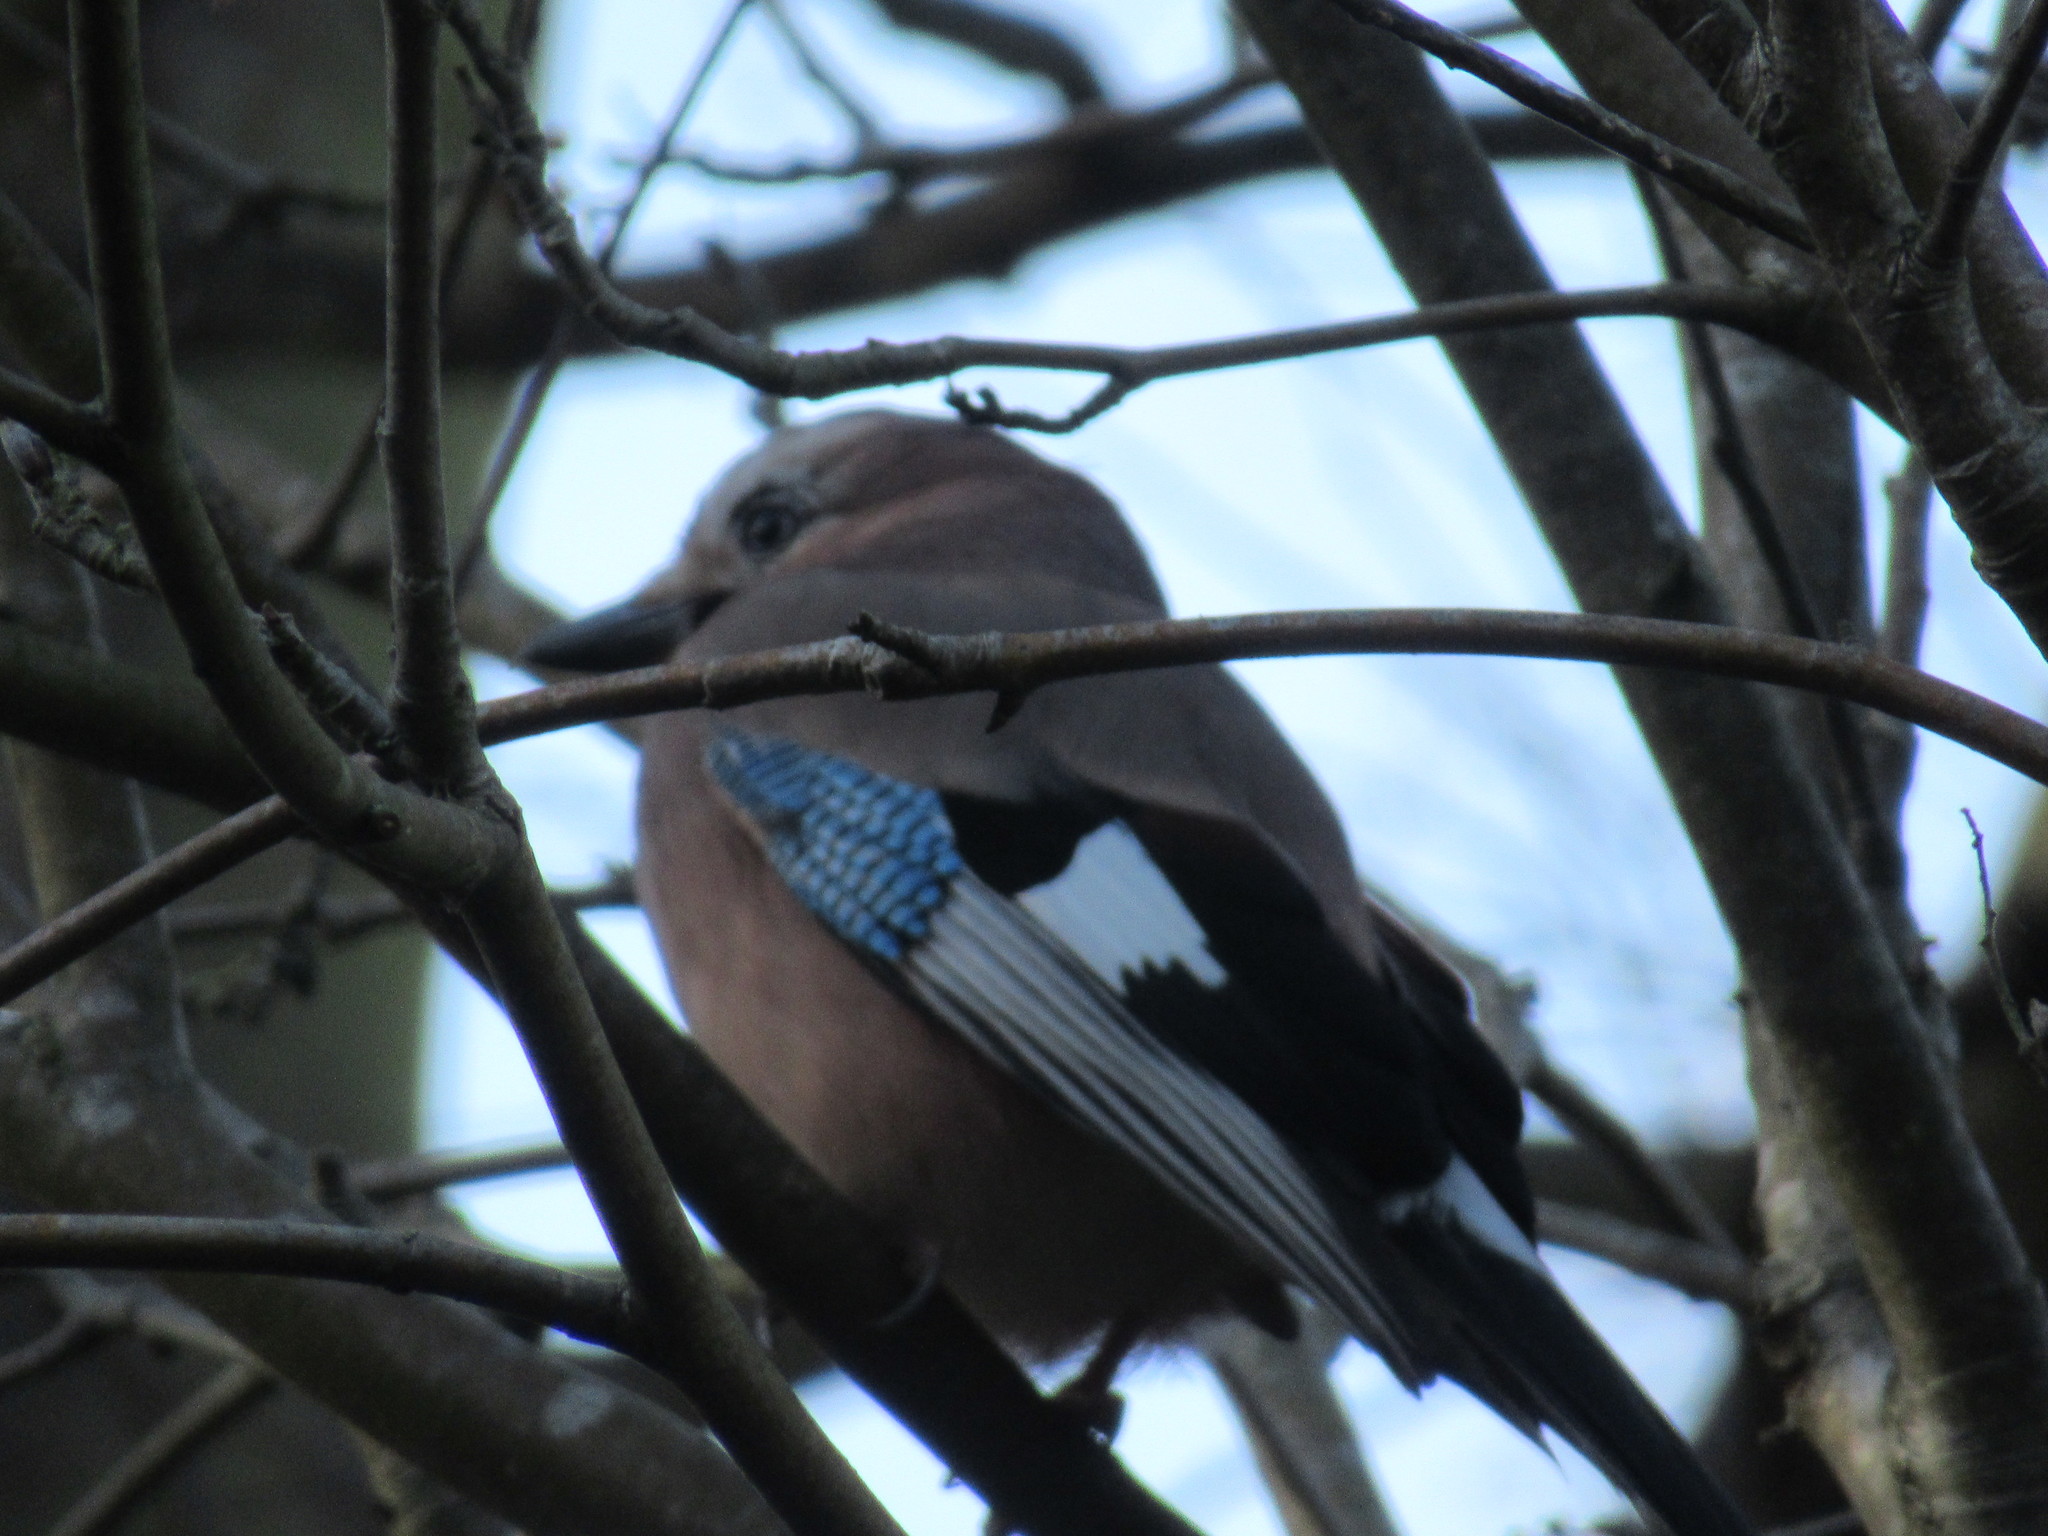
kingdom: Animalia
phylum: Chordata
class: Aves
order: Passeriformes
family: Corvidae
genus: Garrulus
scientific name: Garrulus glandarius
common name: Eurasian jay
